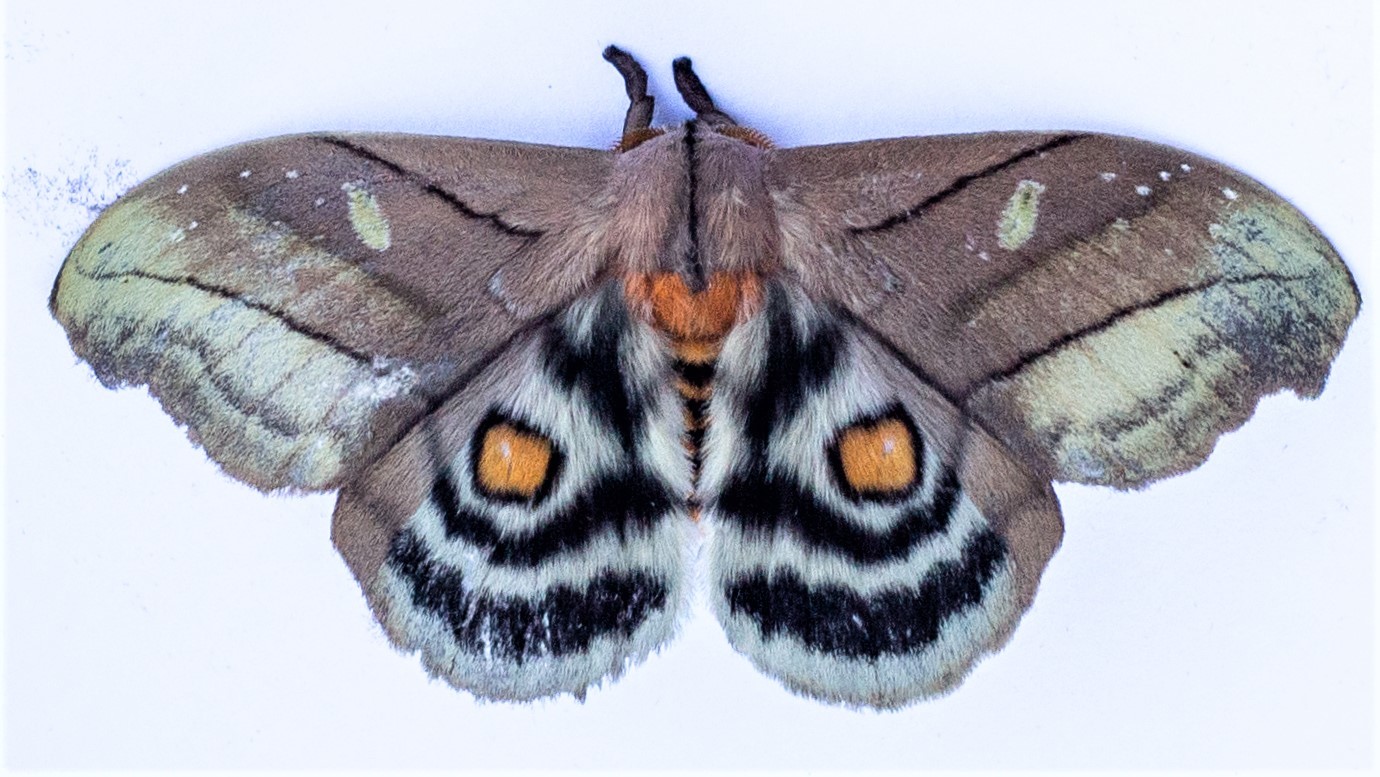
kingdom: Animalia
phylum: Arthropoda
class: Insecta
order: Lepidoptera
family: Saturniidae
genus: Hyperchiria
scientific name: Hyperchiria nausica
